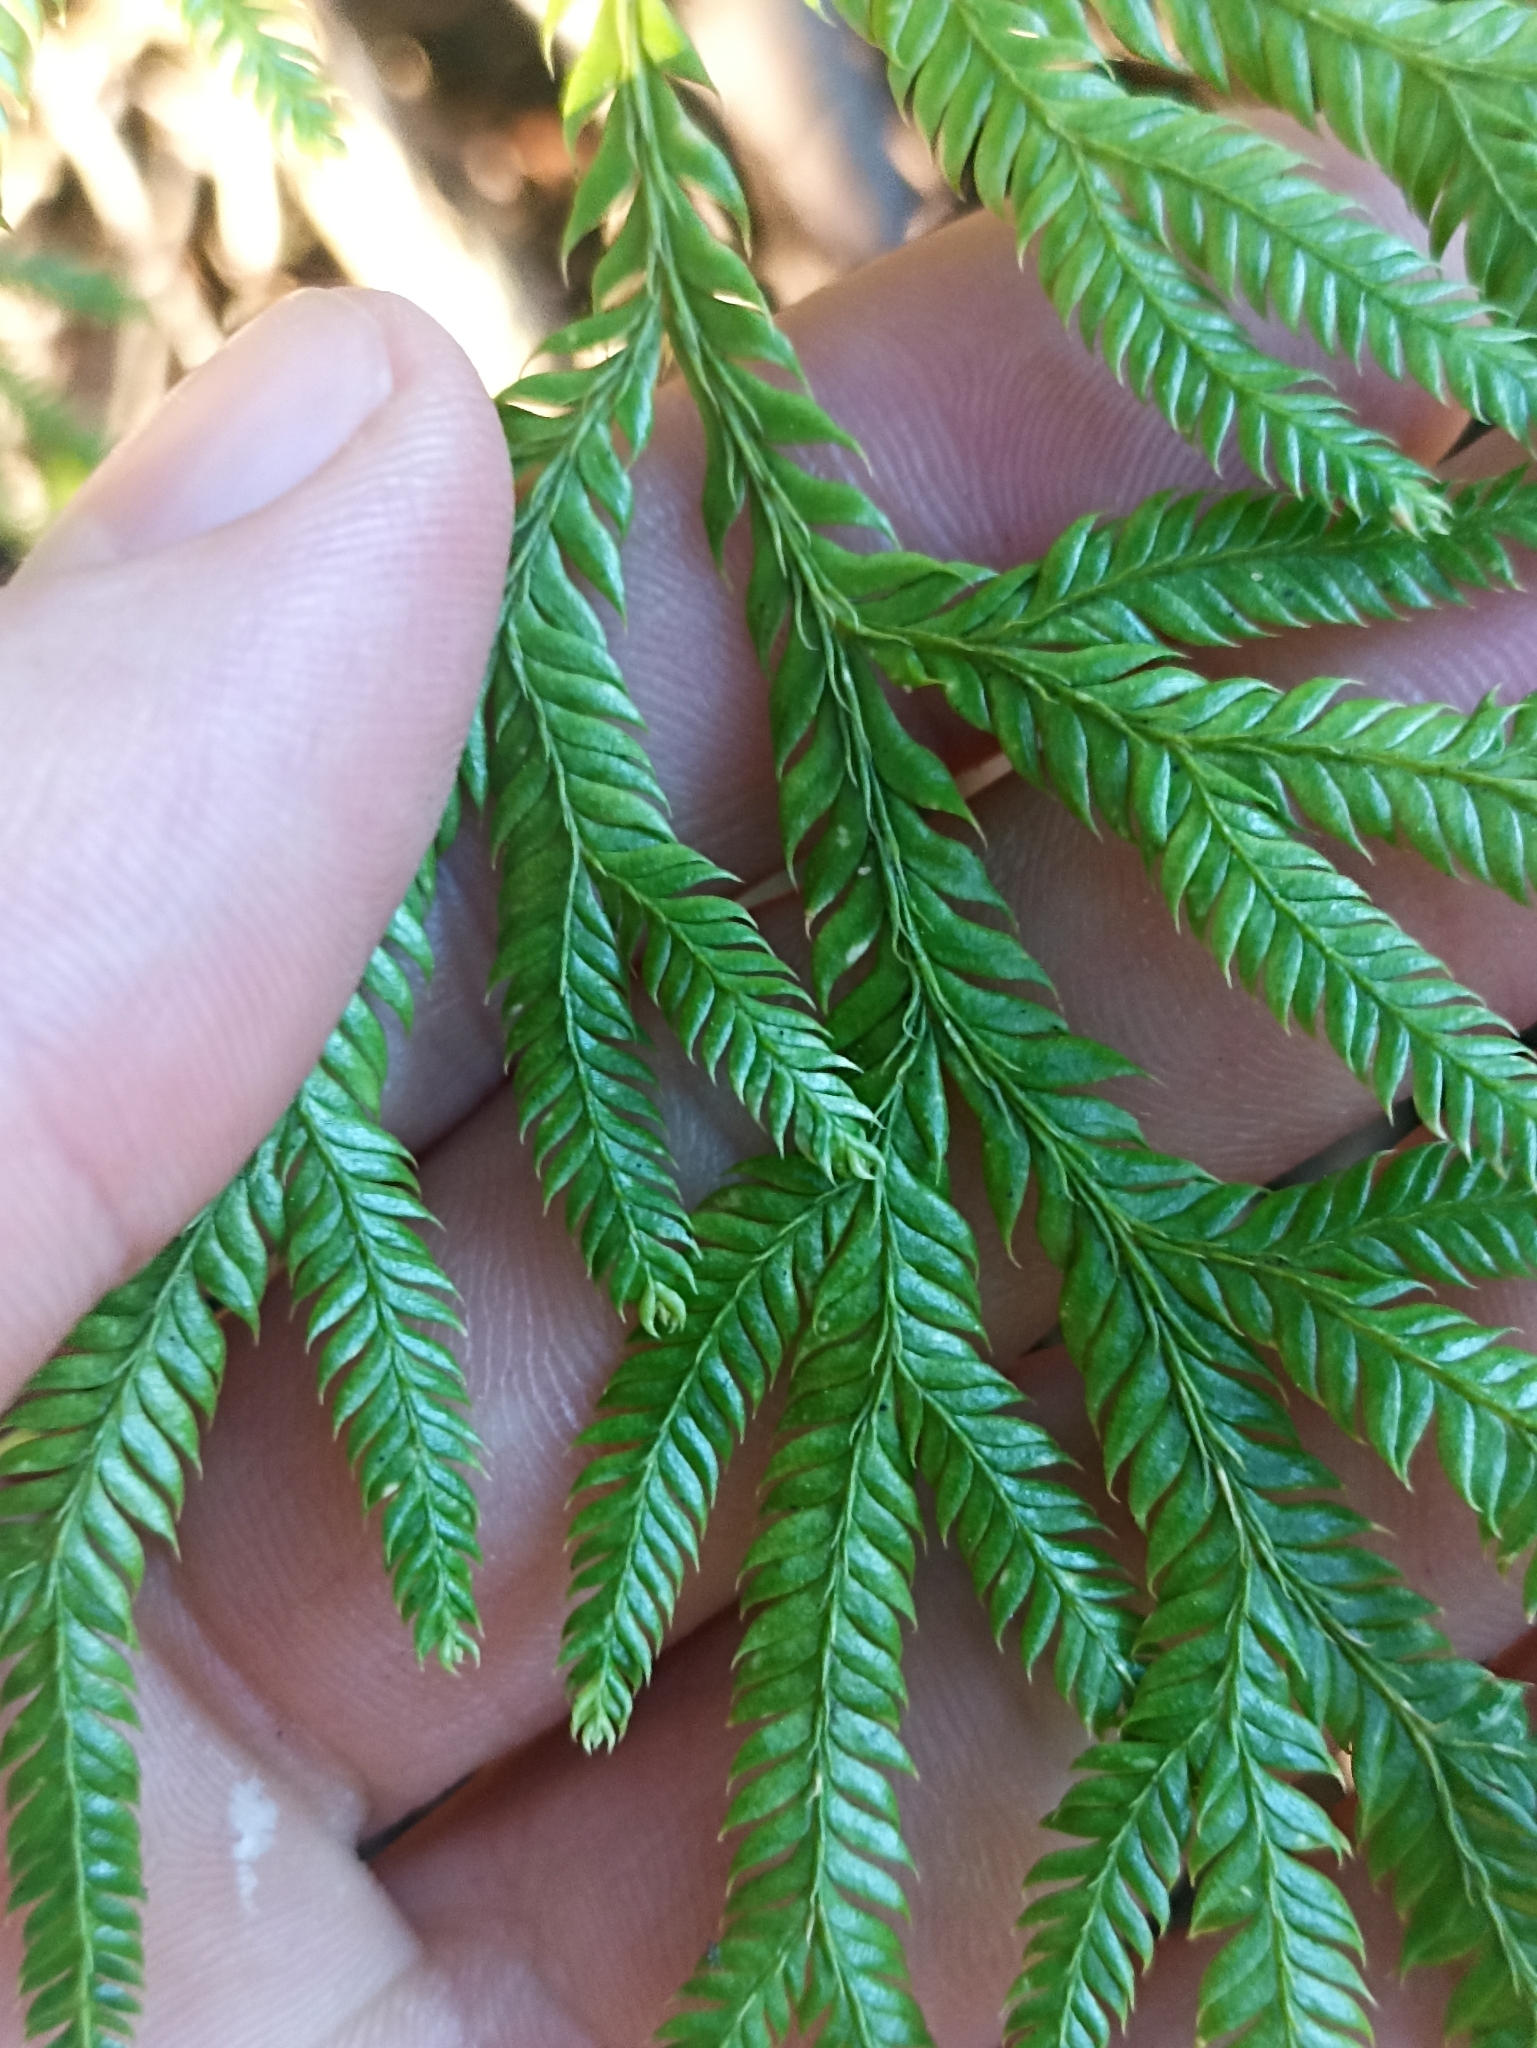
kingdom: Plantae
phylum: Tracheophyta
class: Lycopodiopsida
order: Lycopodiales
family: Lycopodiaceae
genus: Lycopodium
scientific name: Lycopodium volubile
